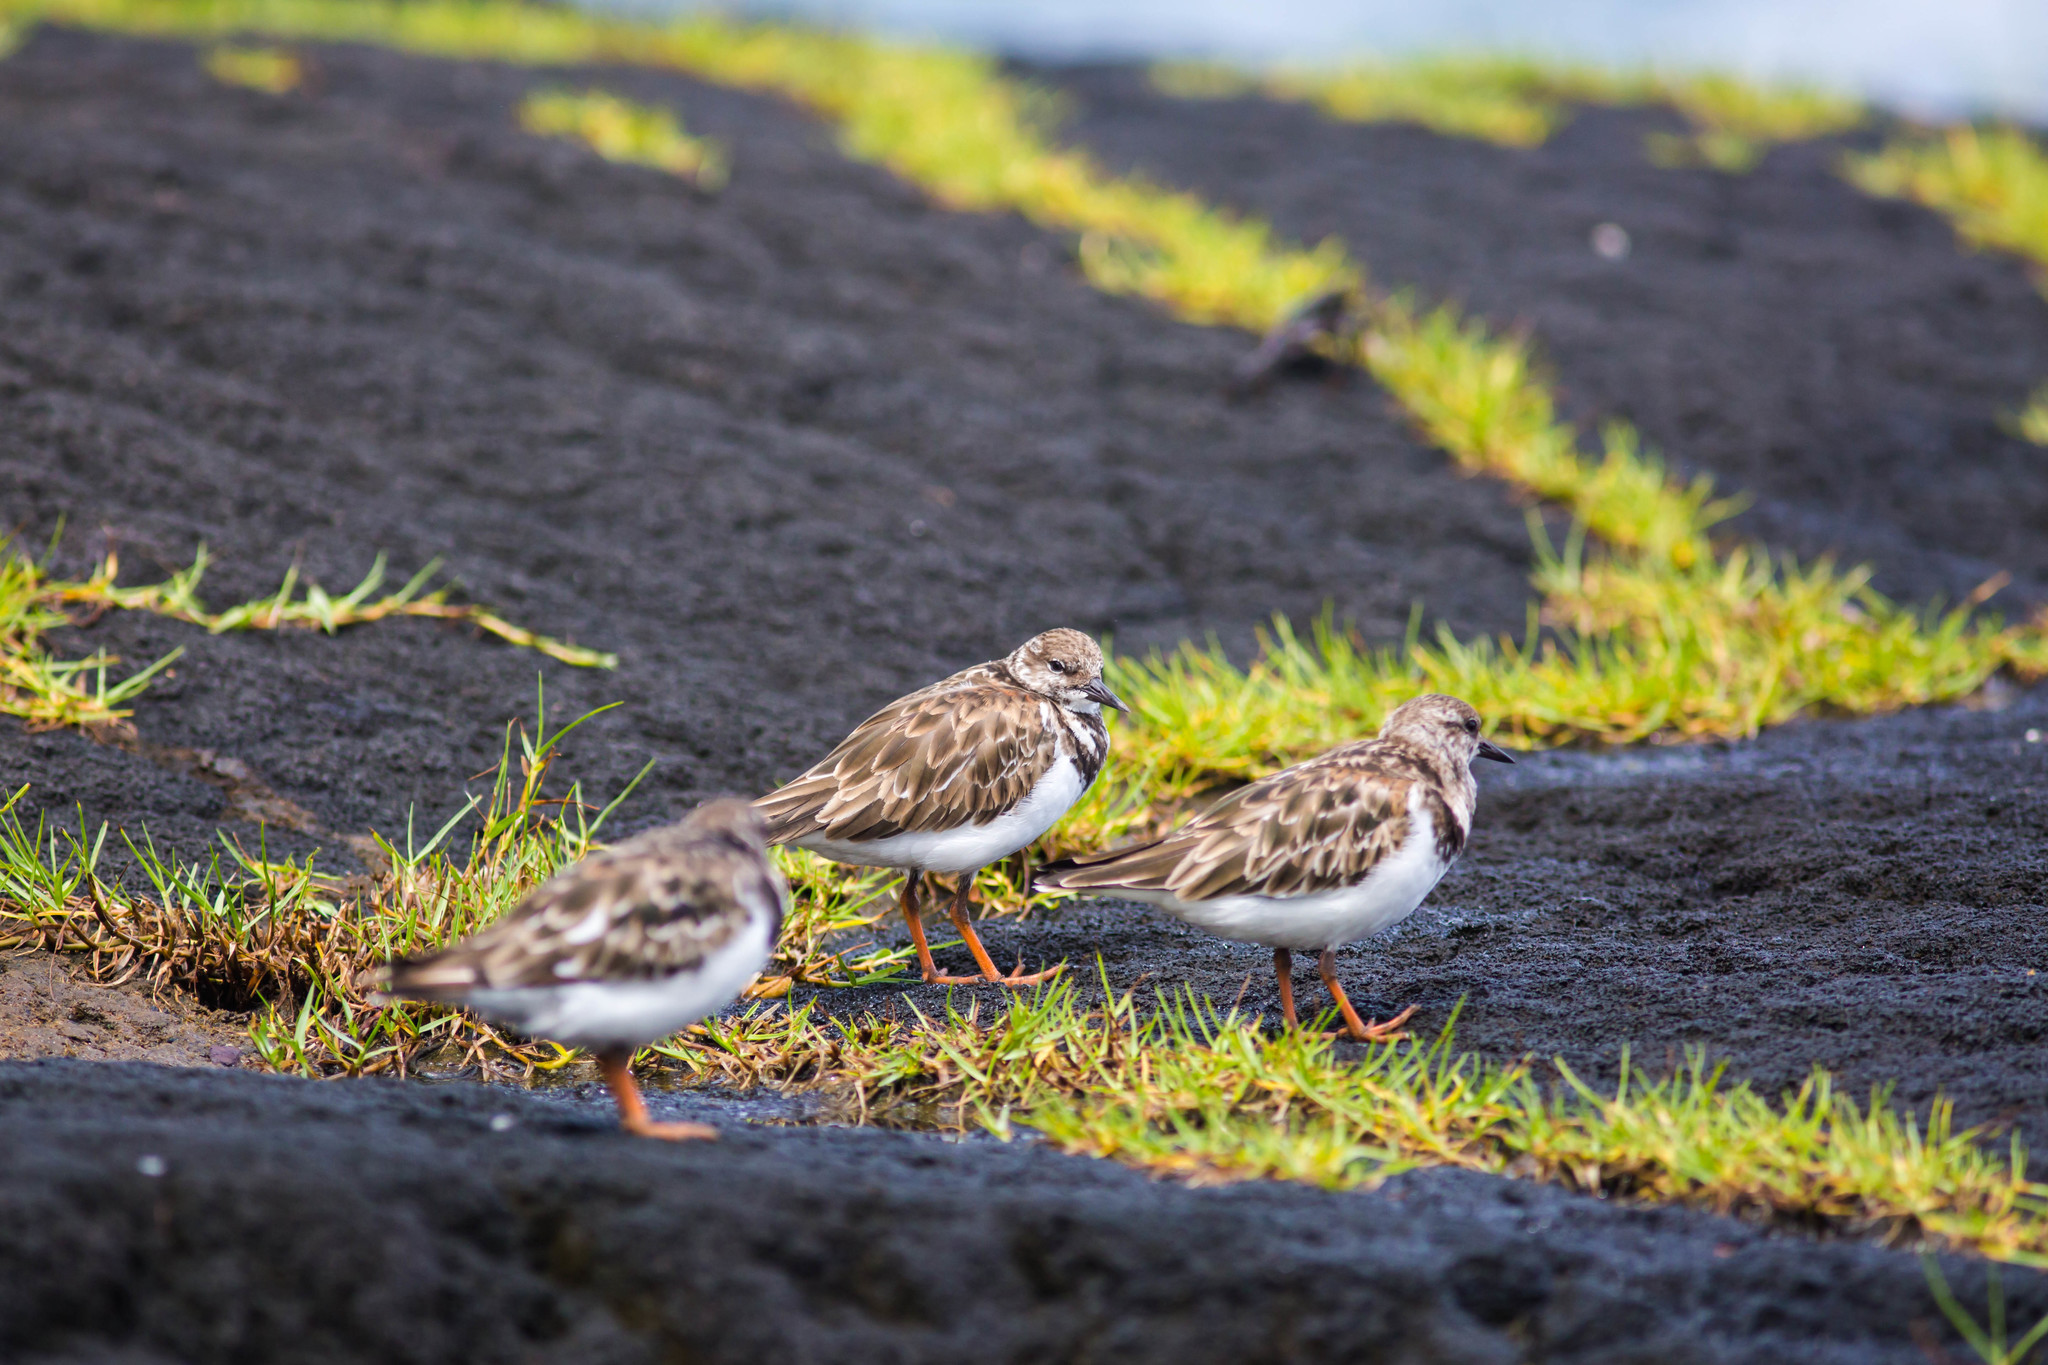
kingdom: Animalia
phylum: Chordata
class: Aves
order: Charadriiformes
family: Scolopacidae
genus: Arenaria
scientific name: Arenaria interpres
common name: Ruddy turnstone
